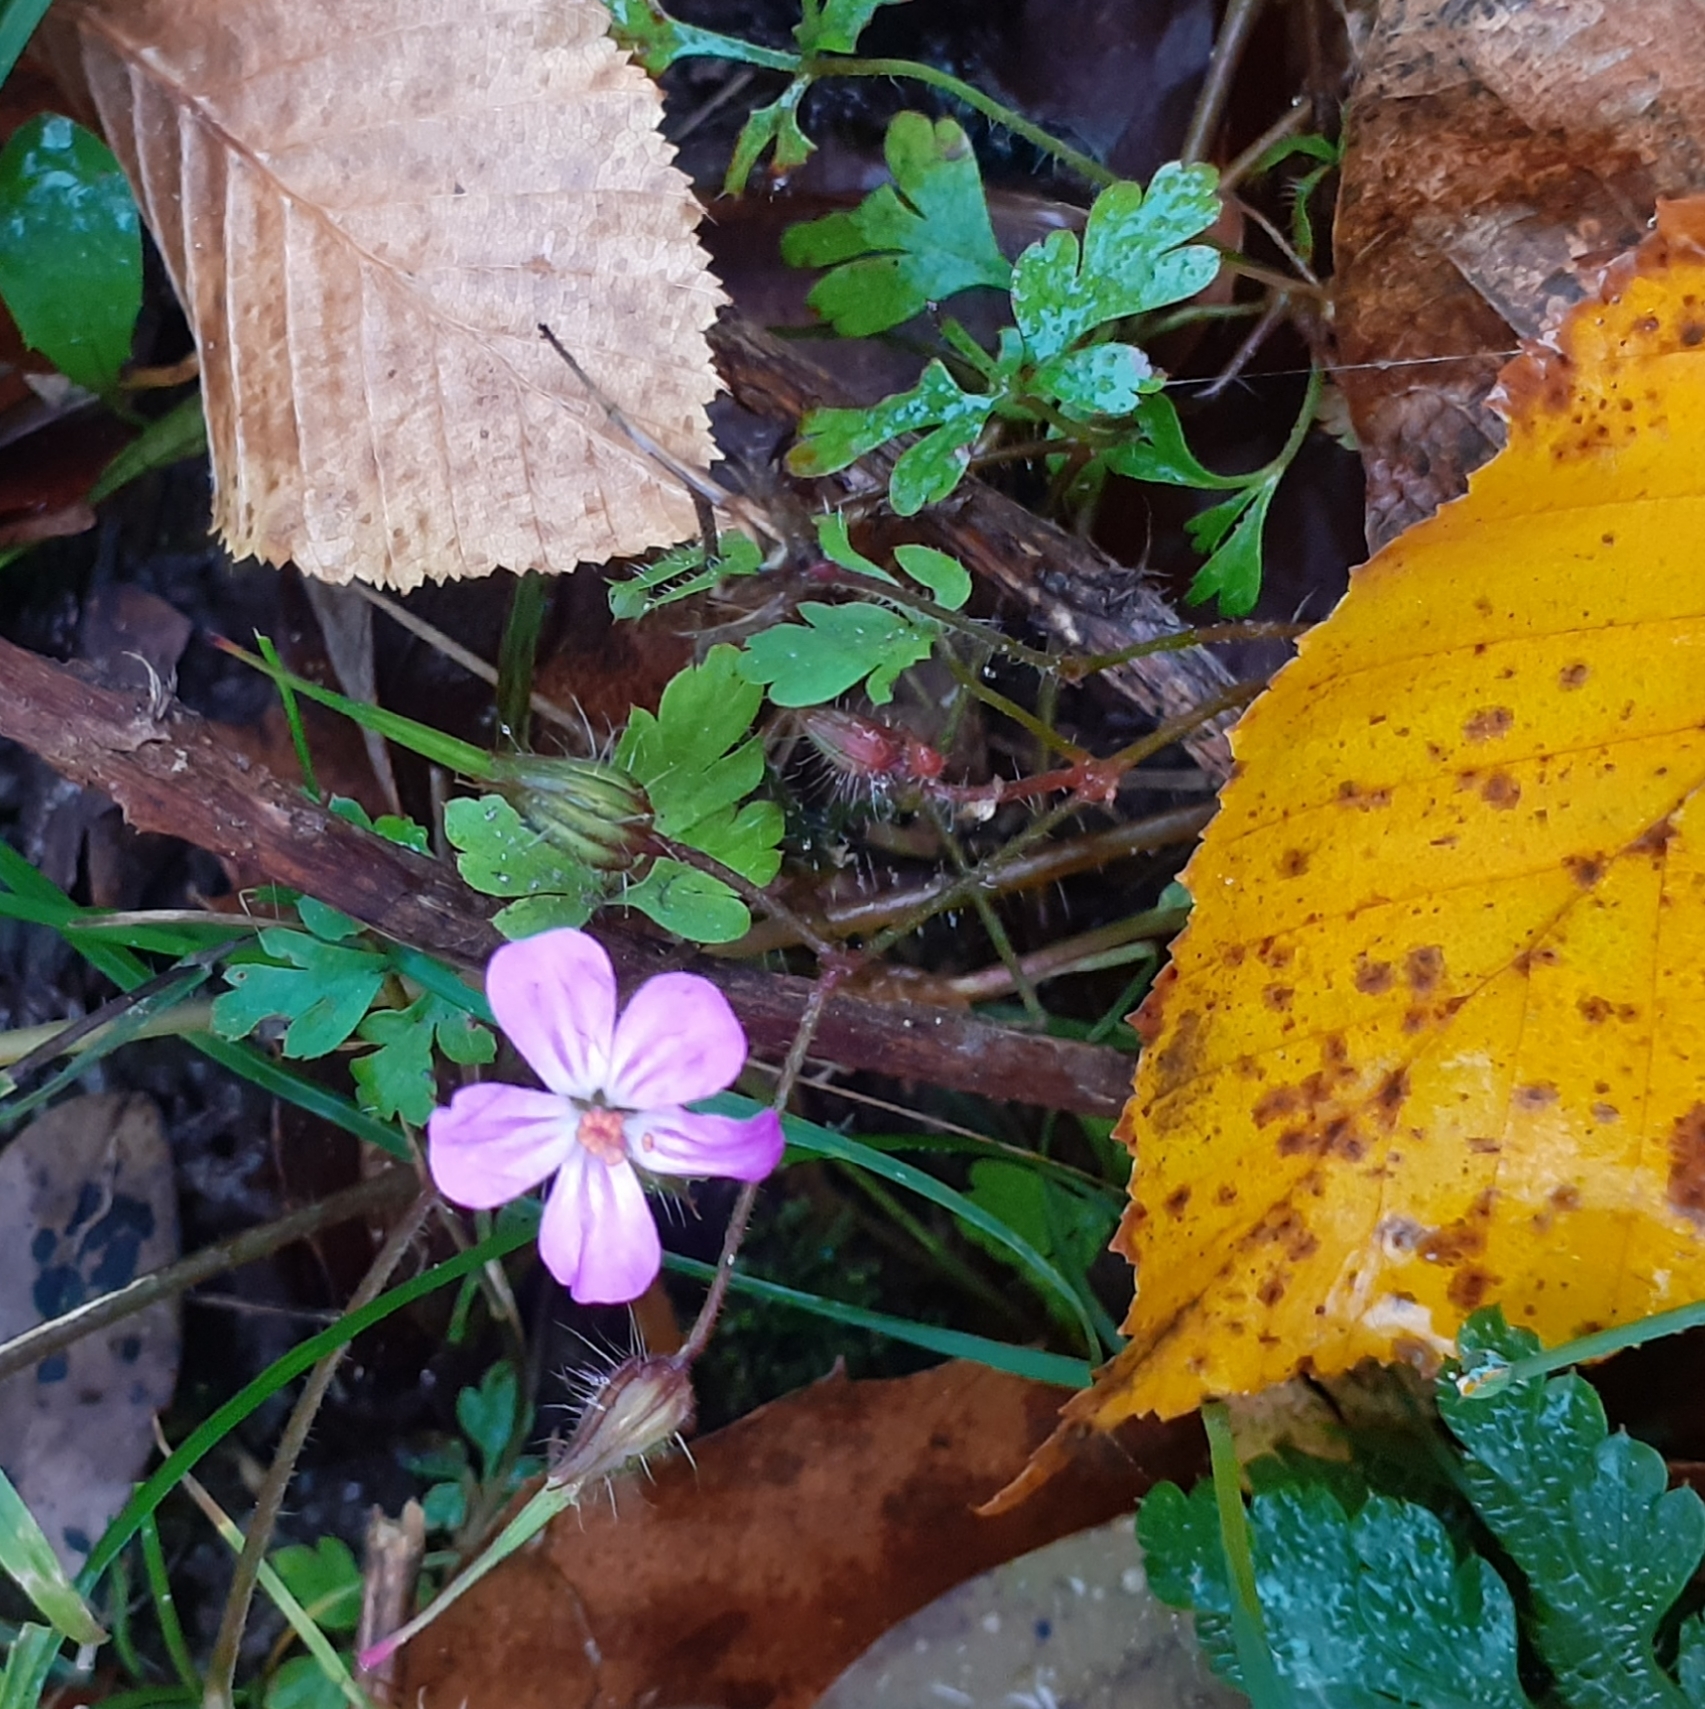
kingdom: Plantae
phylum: Tracheophyta
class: Magnoliopsida
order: Geraniales
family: Geraniaceae
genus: Geranium
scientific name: Geranium robertianum
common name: Herb-robert
